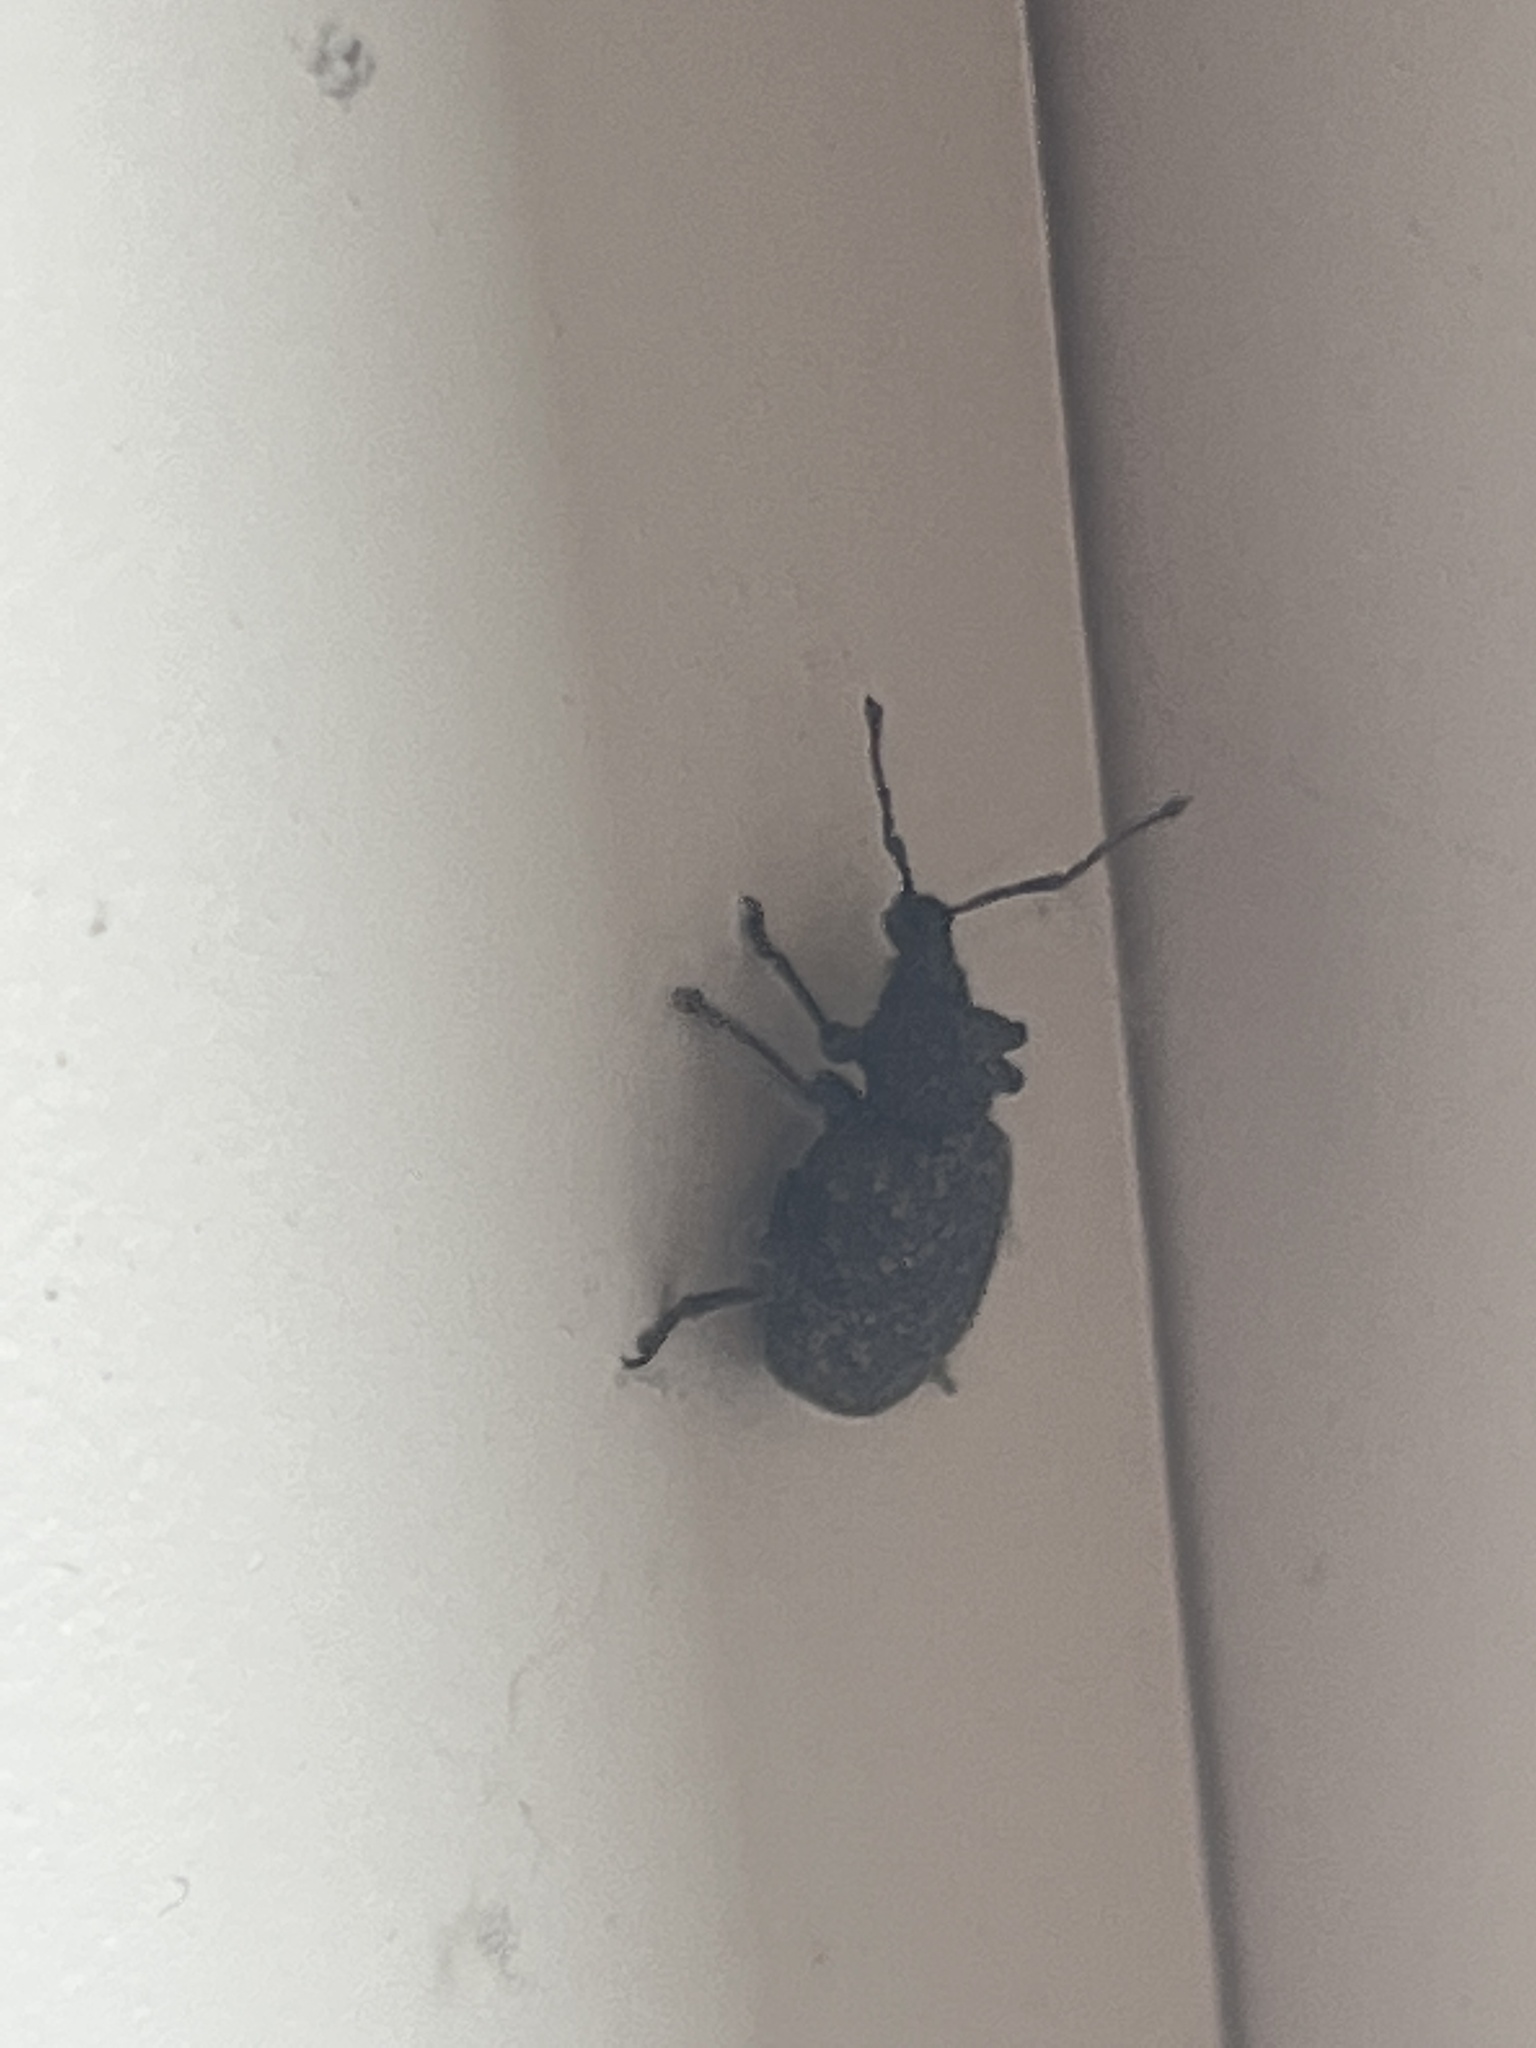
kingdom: Animalia
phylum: Arthropoda
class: Insecta
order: Coleoptera
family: Curculionidae
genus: Otiorhynchus
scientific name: Otiorhynchus sulcatus
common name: Black vine weevil
